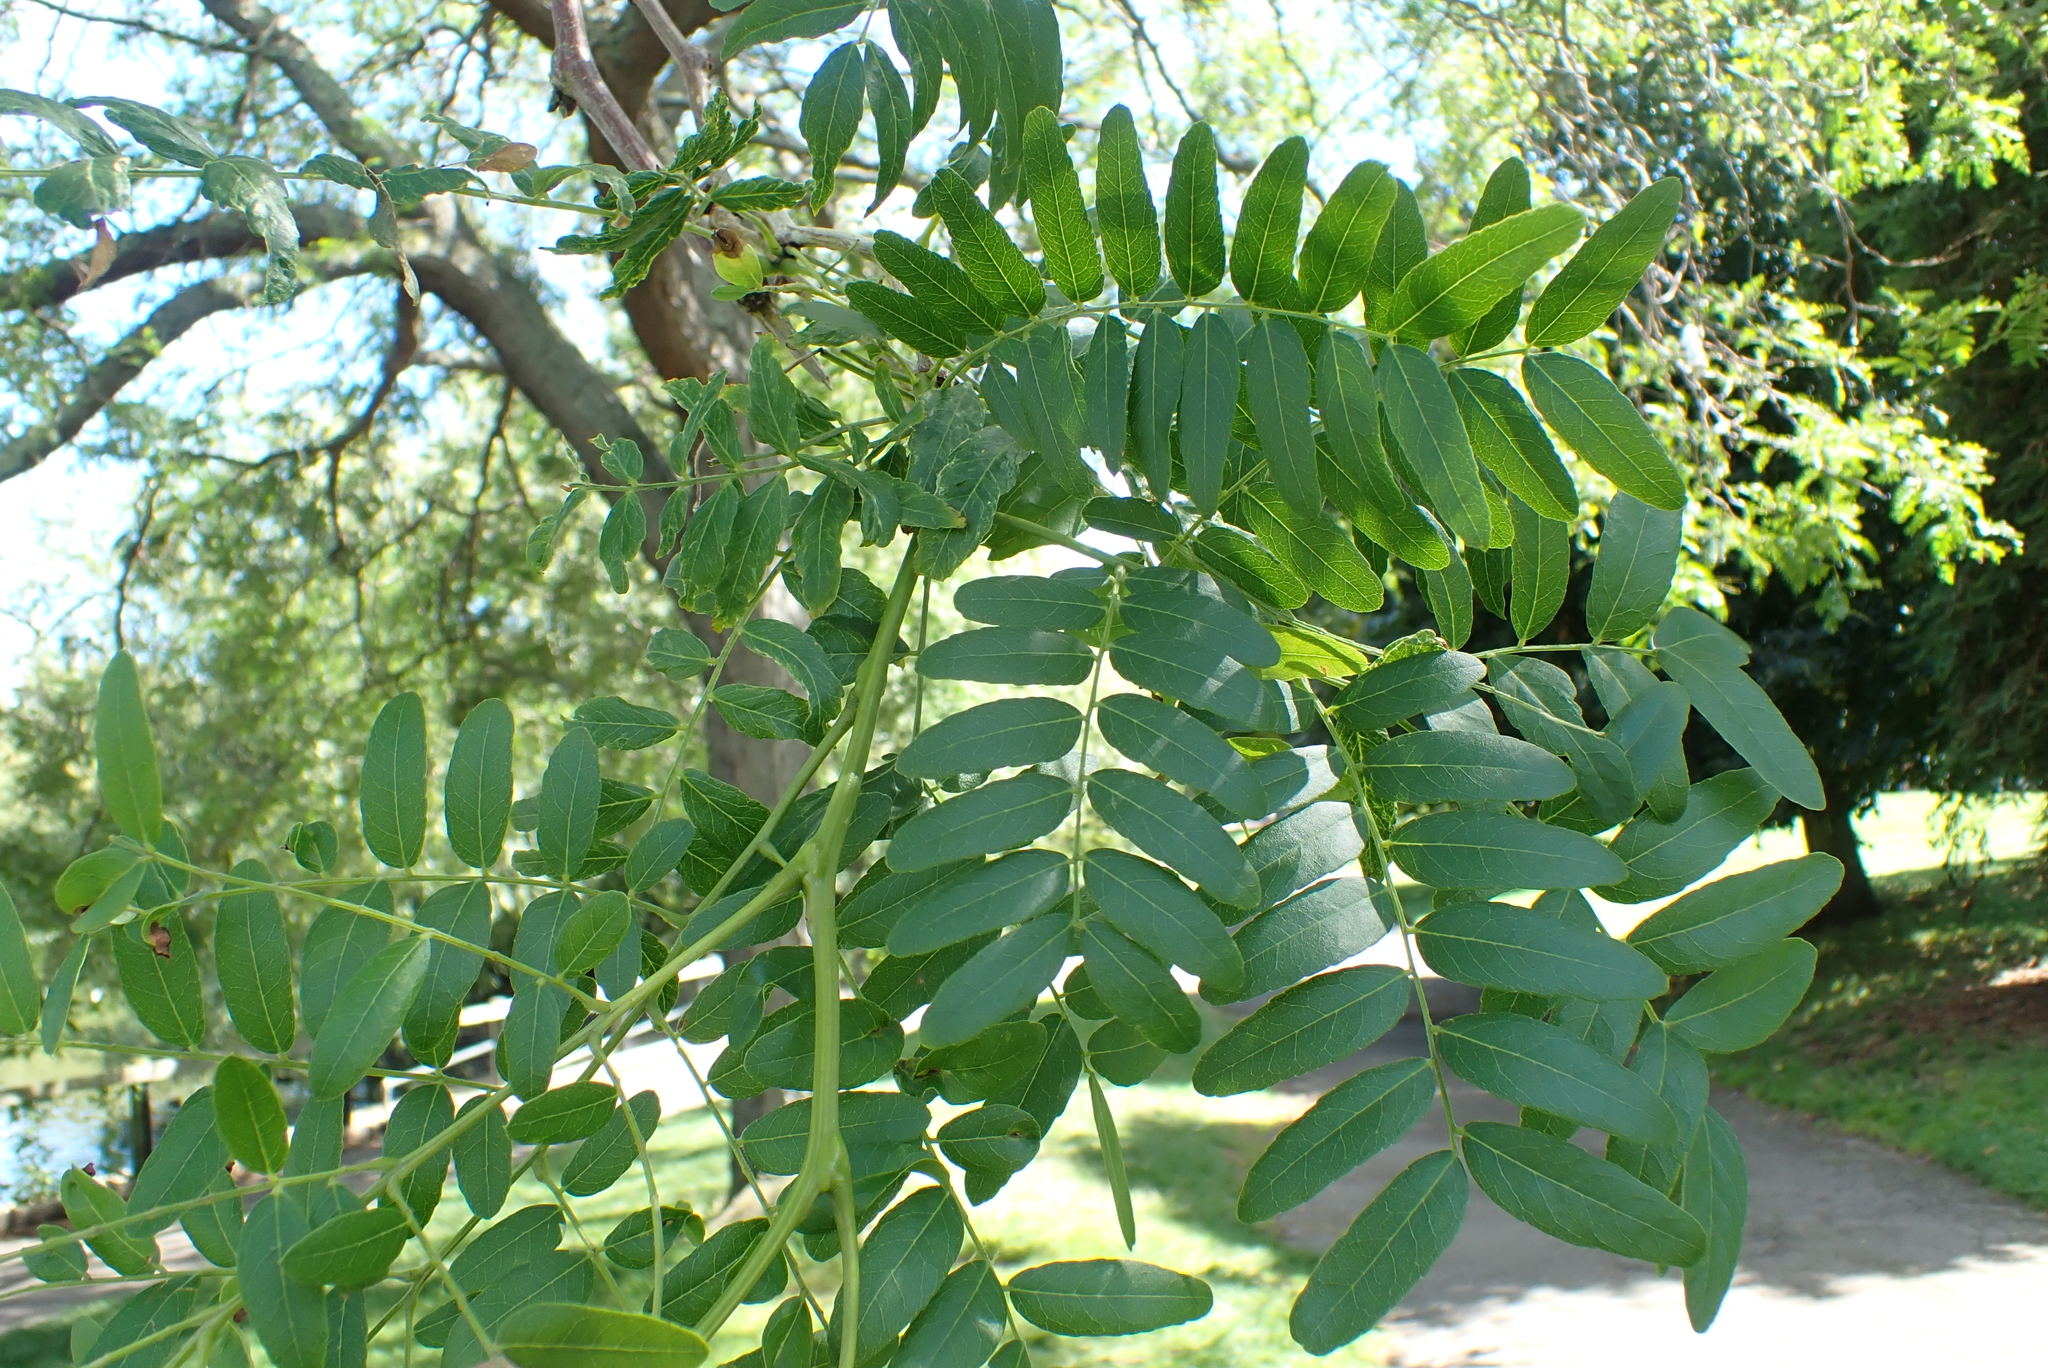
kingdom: Plantae
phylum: Tracheophyta
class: Magnoliopsida
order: Fabales
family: Fabaceae
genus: Gleditsia
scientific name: Gleditsia triacanthos
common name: Common honeylocust
